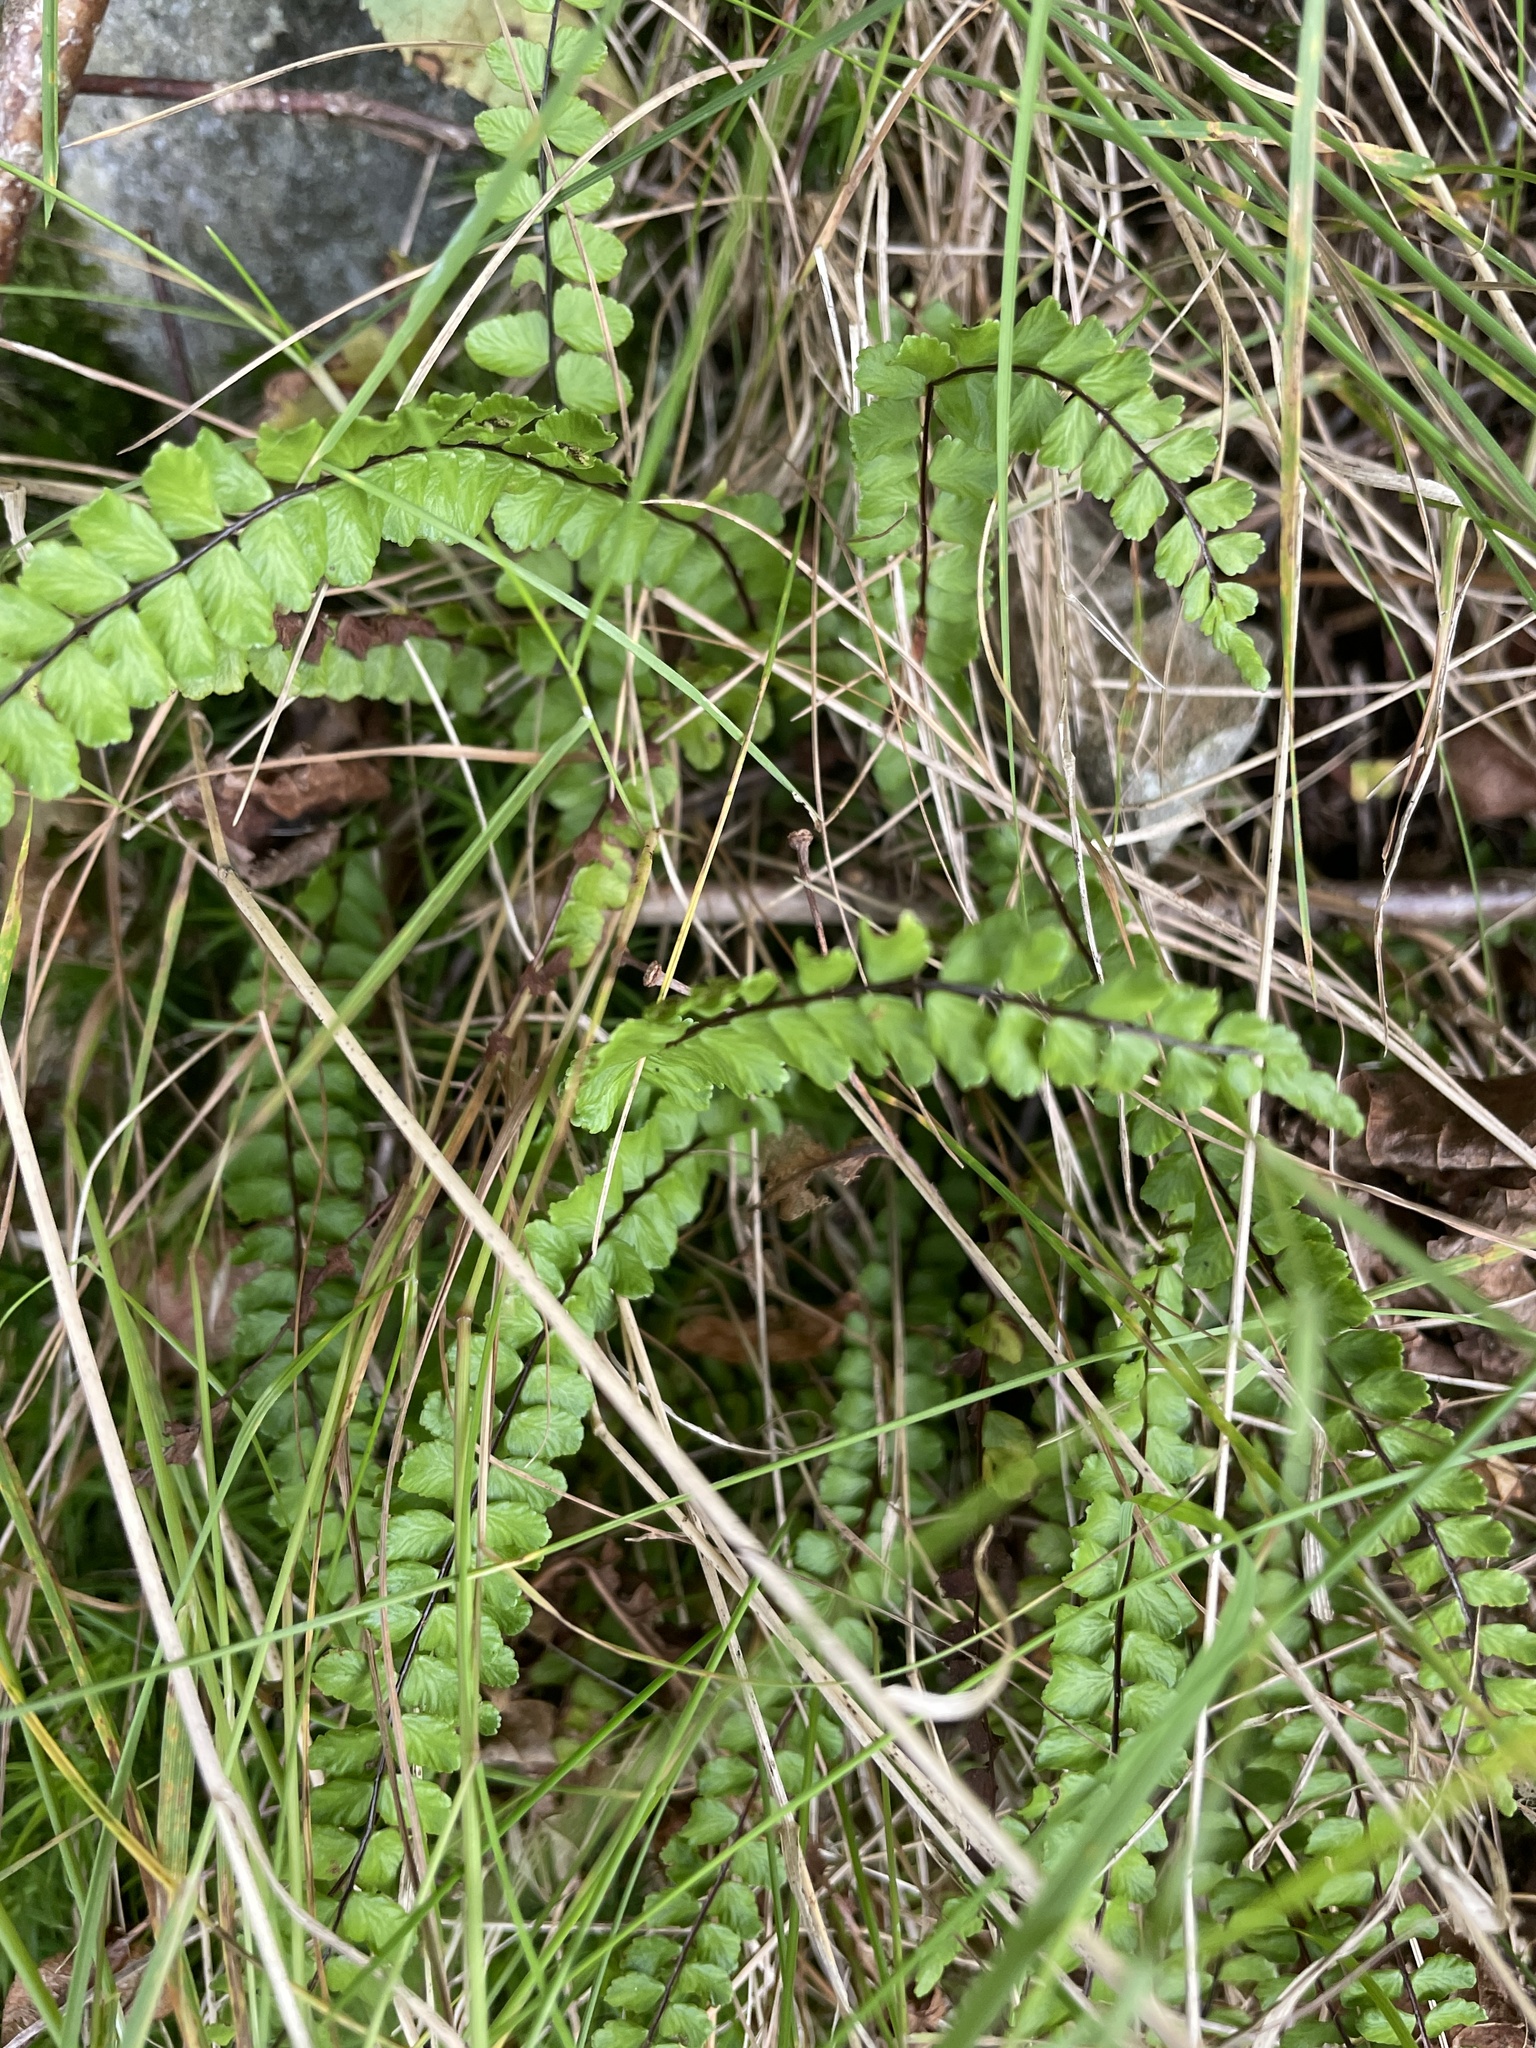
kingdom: Plantae
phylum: Tracheophyta
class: Polypodiopsida
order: Polypodiales
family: Aspleniaceae
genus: Asplenium
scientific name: Asplenium trichomanes
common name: Maidenhair spleenwort
